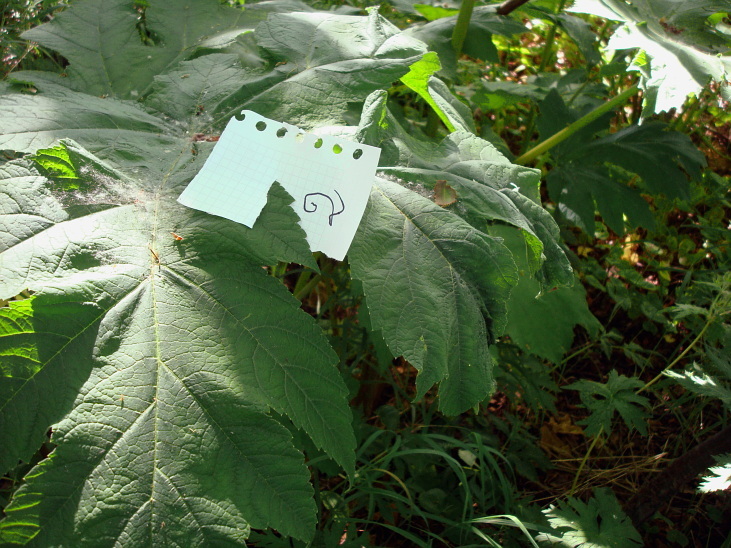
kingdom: Plantae
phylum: Tracheophyta
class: Magnoliopsida
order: Apiales
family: Apiaceae
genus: Heracleum
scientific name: Heracleum maximum
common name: American cow parsnip
